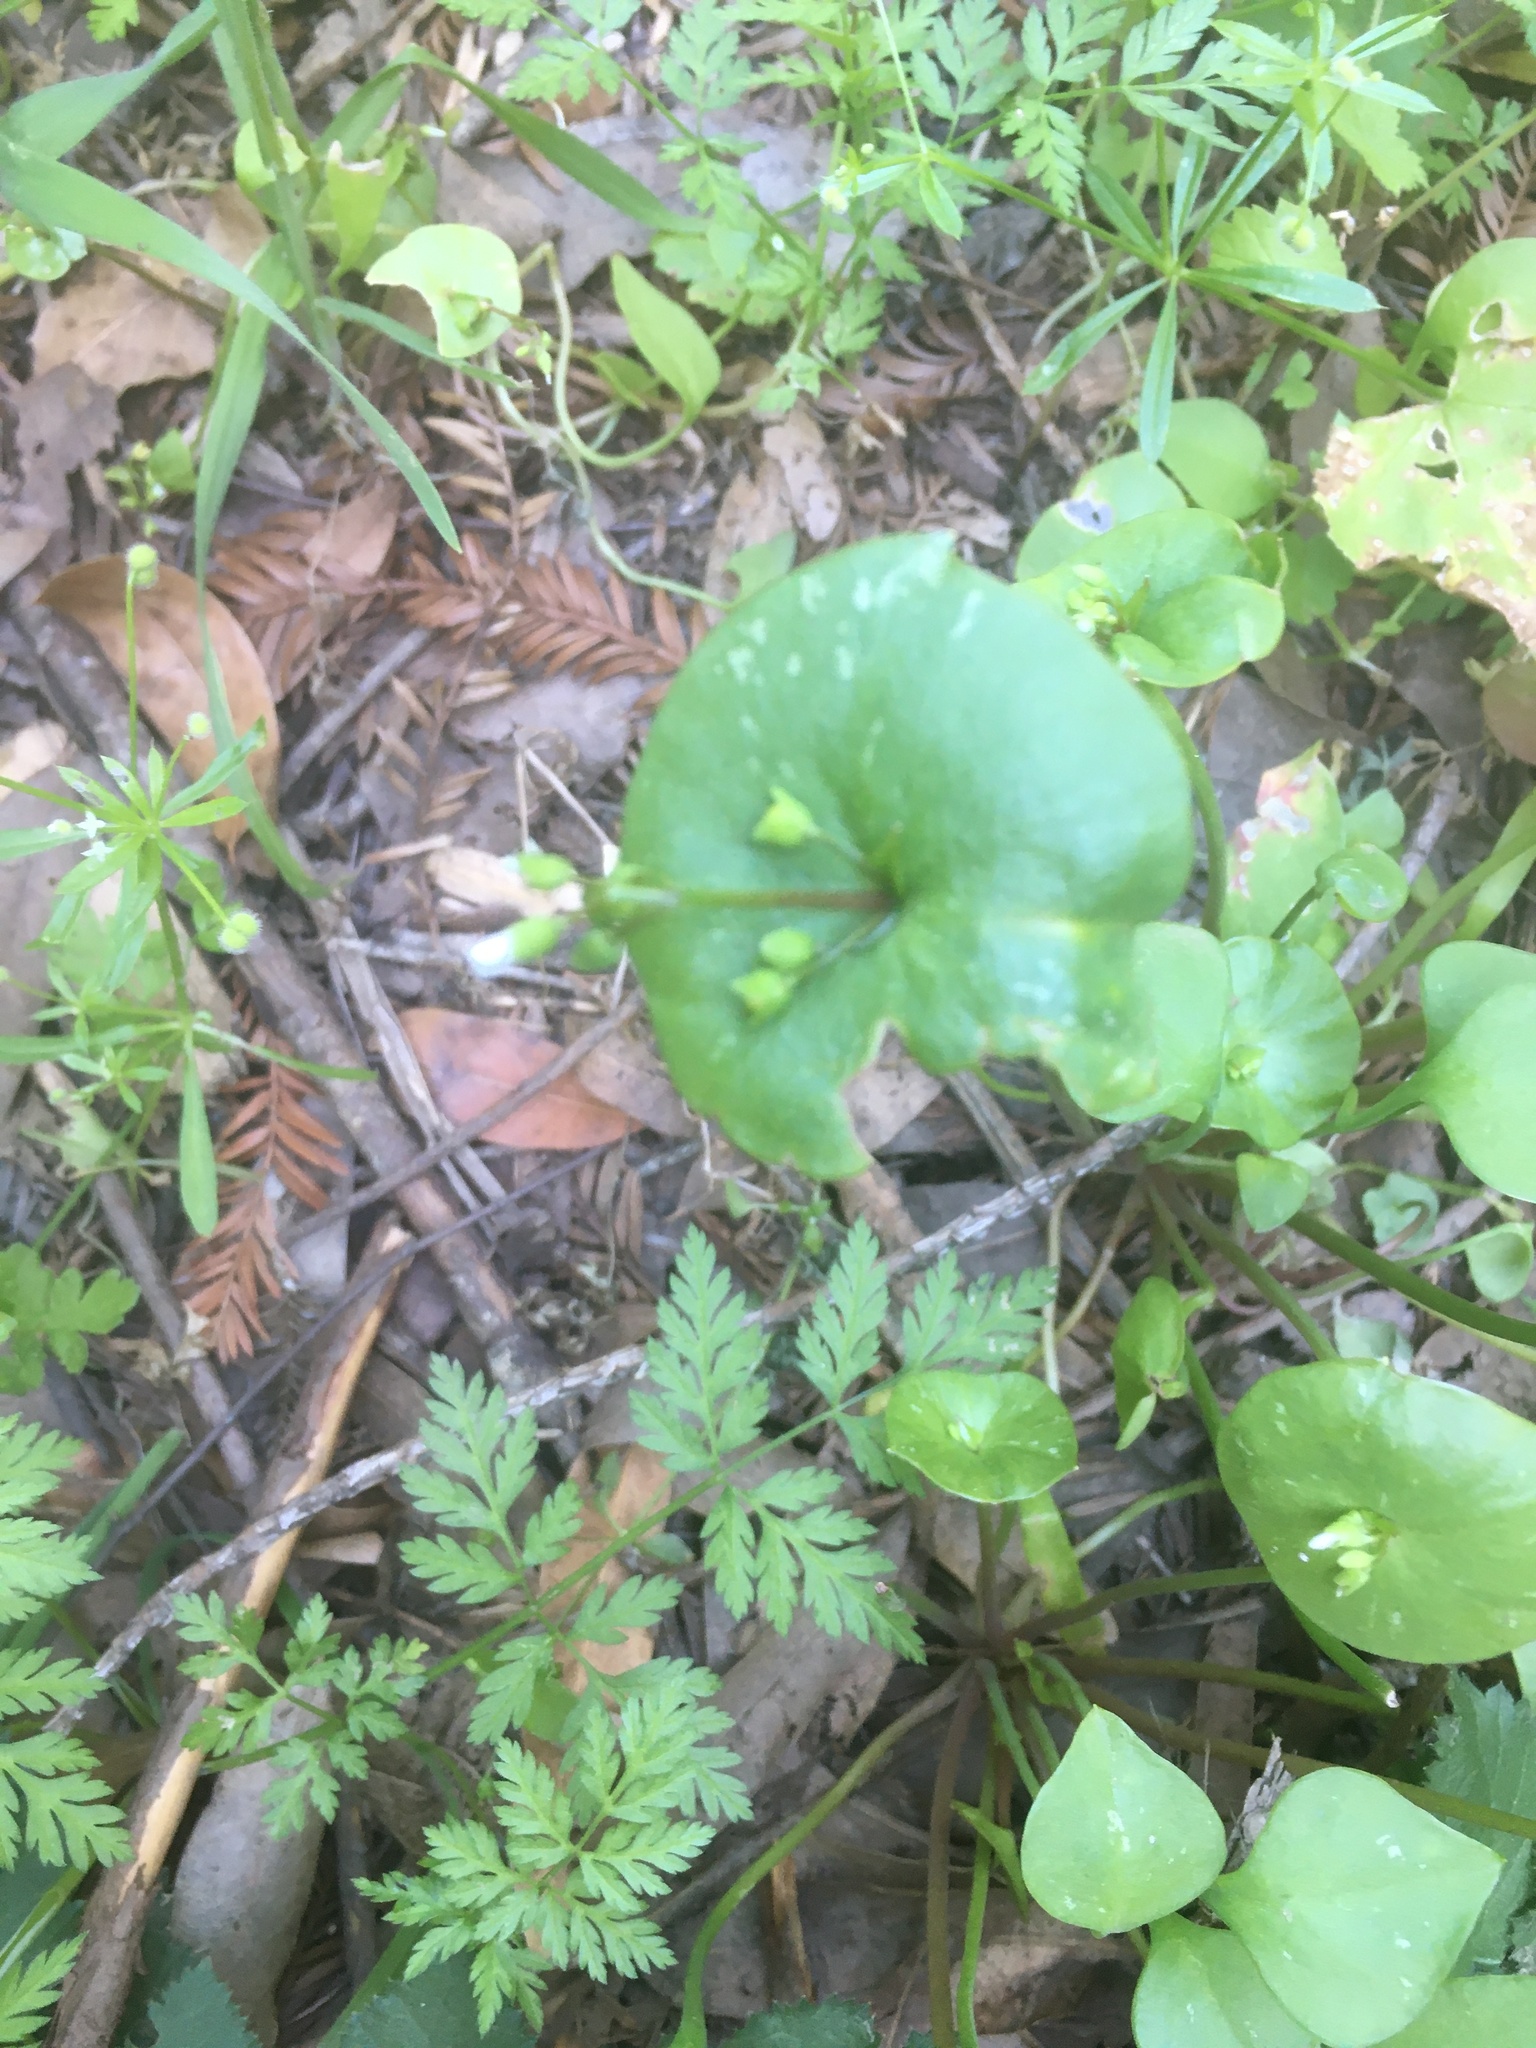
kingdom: Plantae
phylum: Tracheophyta
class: Magnoliopsida
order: Caryophyllales
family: Montiaceae
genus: Claytonia
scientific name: Claytonia perfoliata
